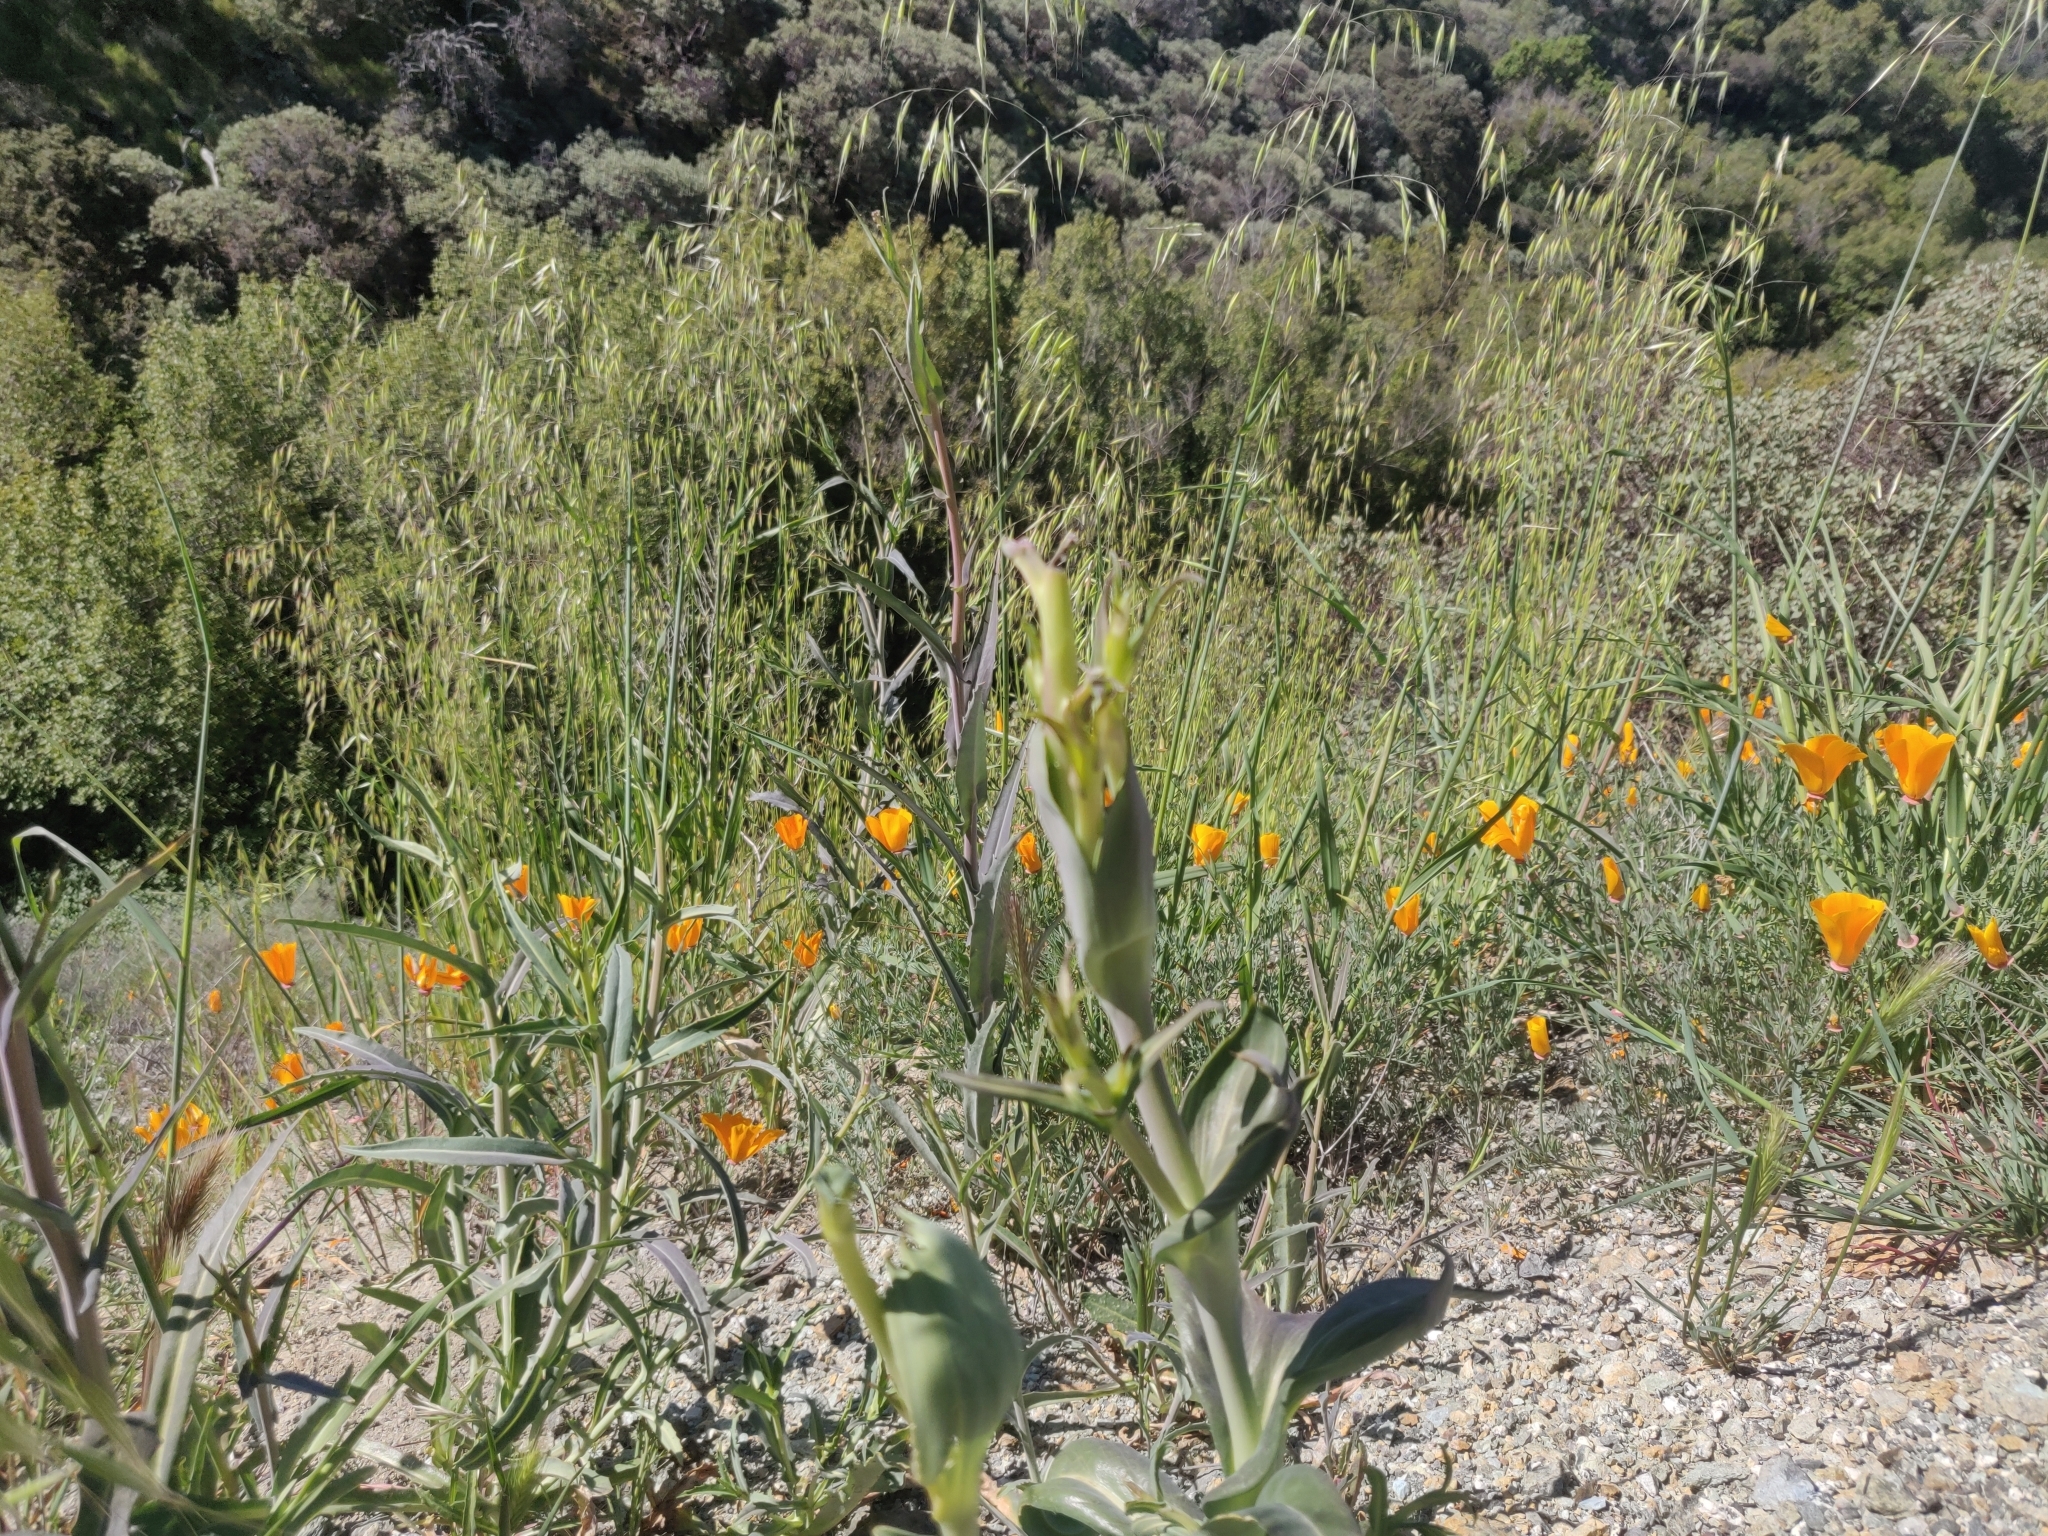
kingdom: Plantae
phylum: Tracheophyta
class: Magnoliopsida
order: Brassicales
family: Brassicaceae
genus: Streptanthus
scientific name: Streptanthus glandulosus
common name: Jewel-flower
